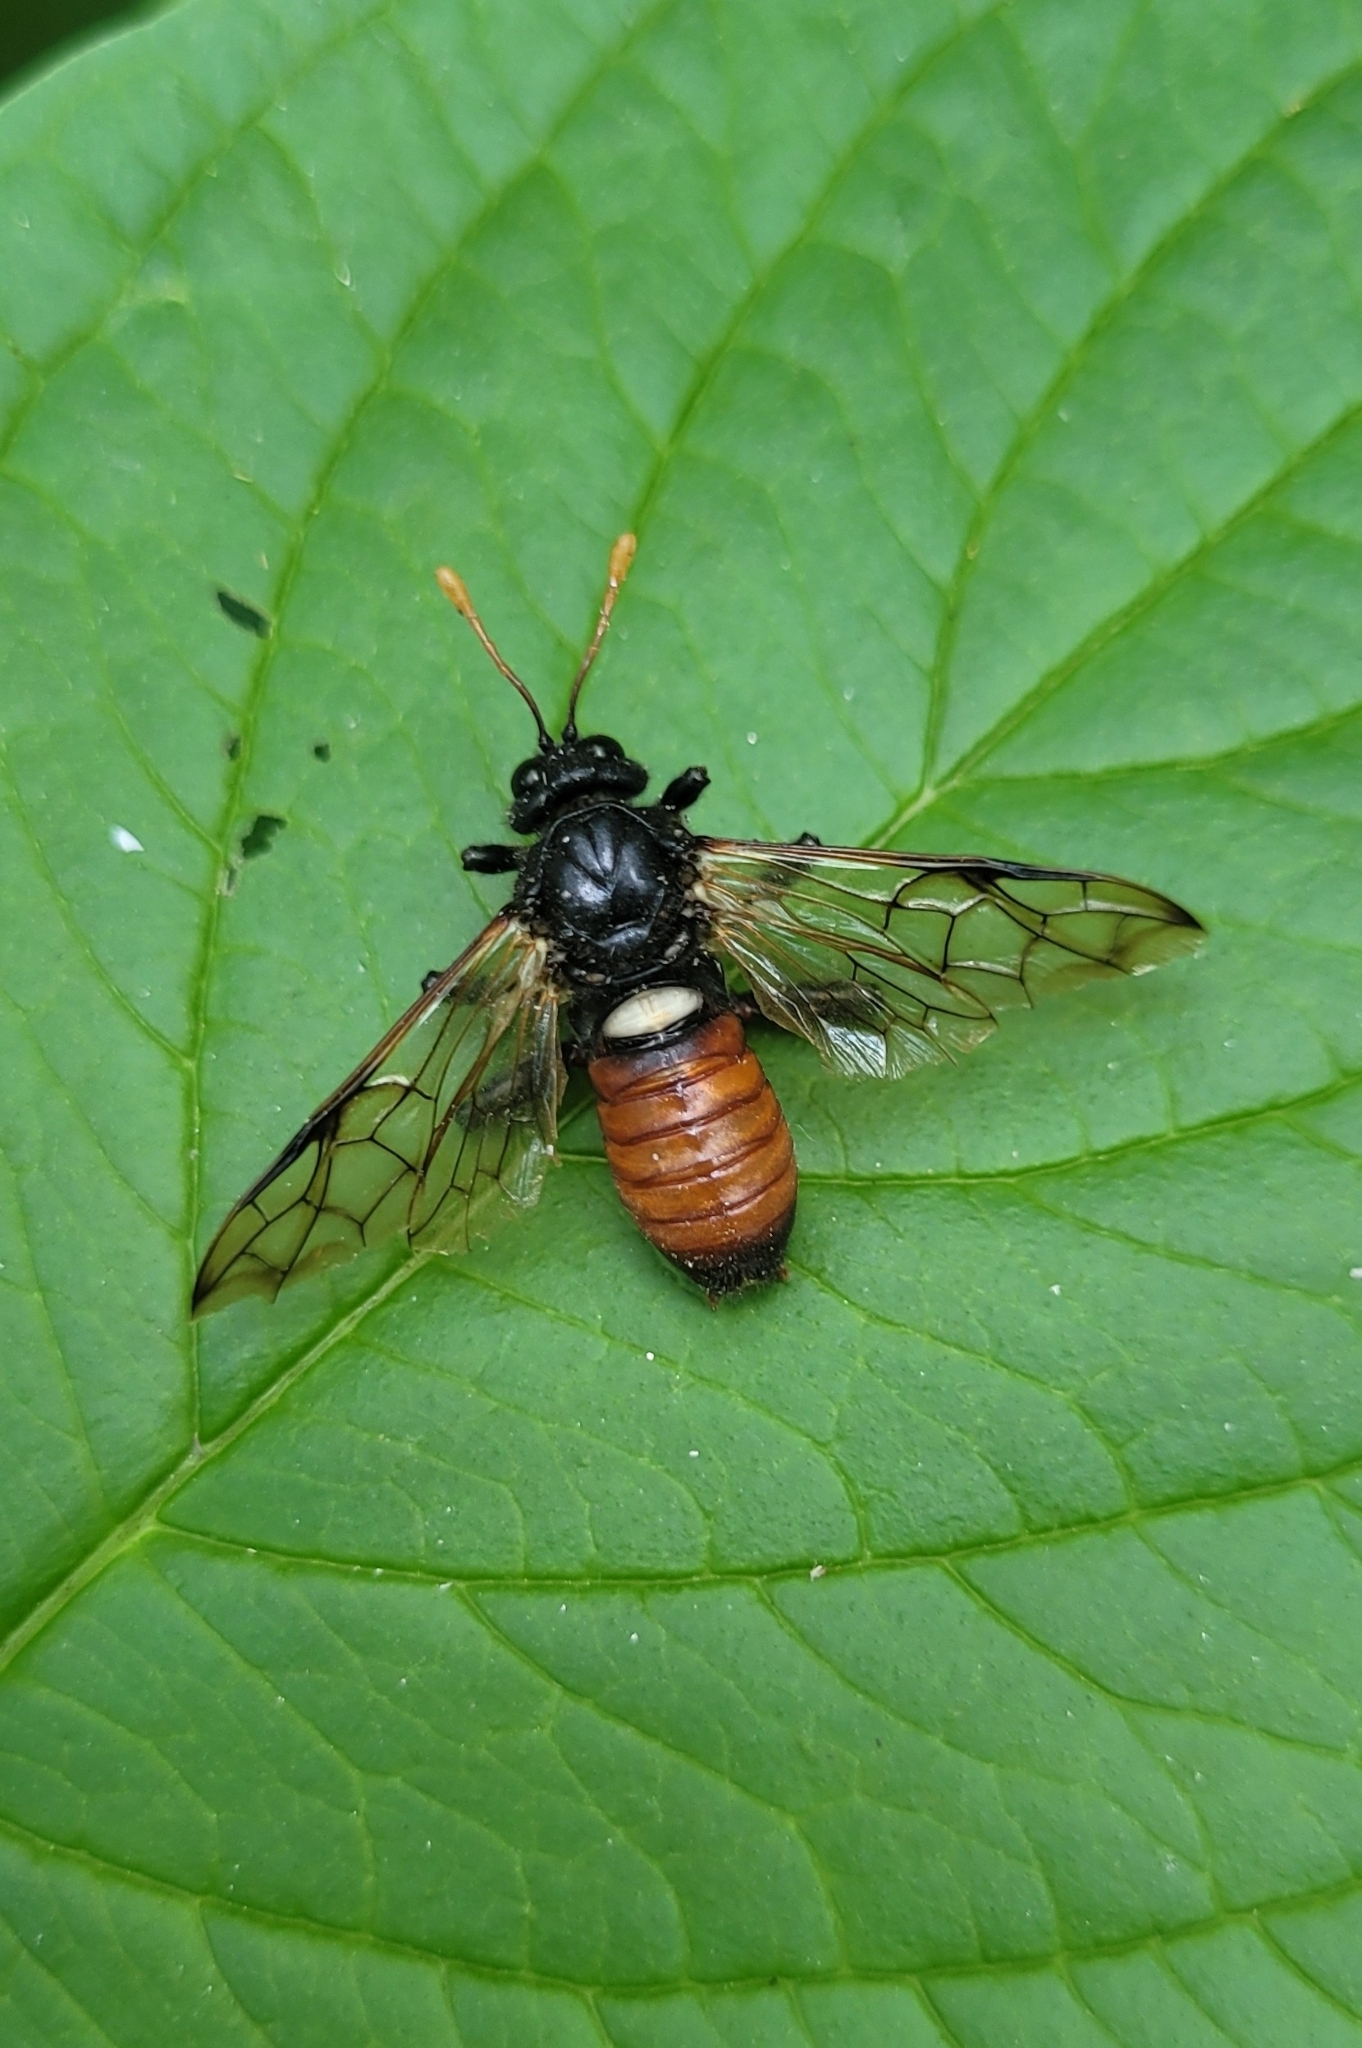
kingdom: Animalia
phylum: Arthropoda
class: Insecta
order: Hymenoptera
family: Cimbicidae
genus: Cimbex
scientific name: Cimbex femoratus
